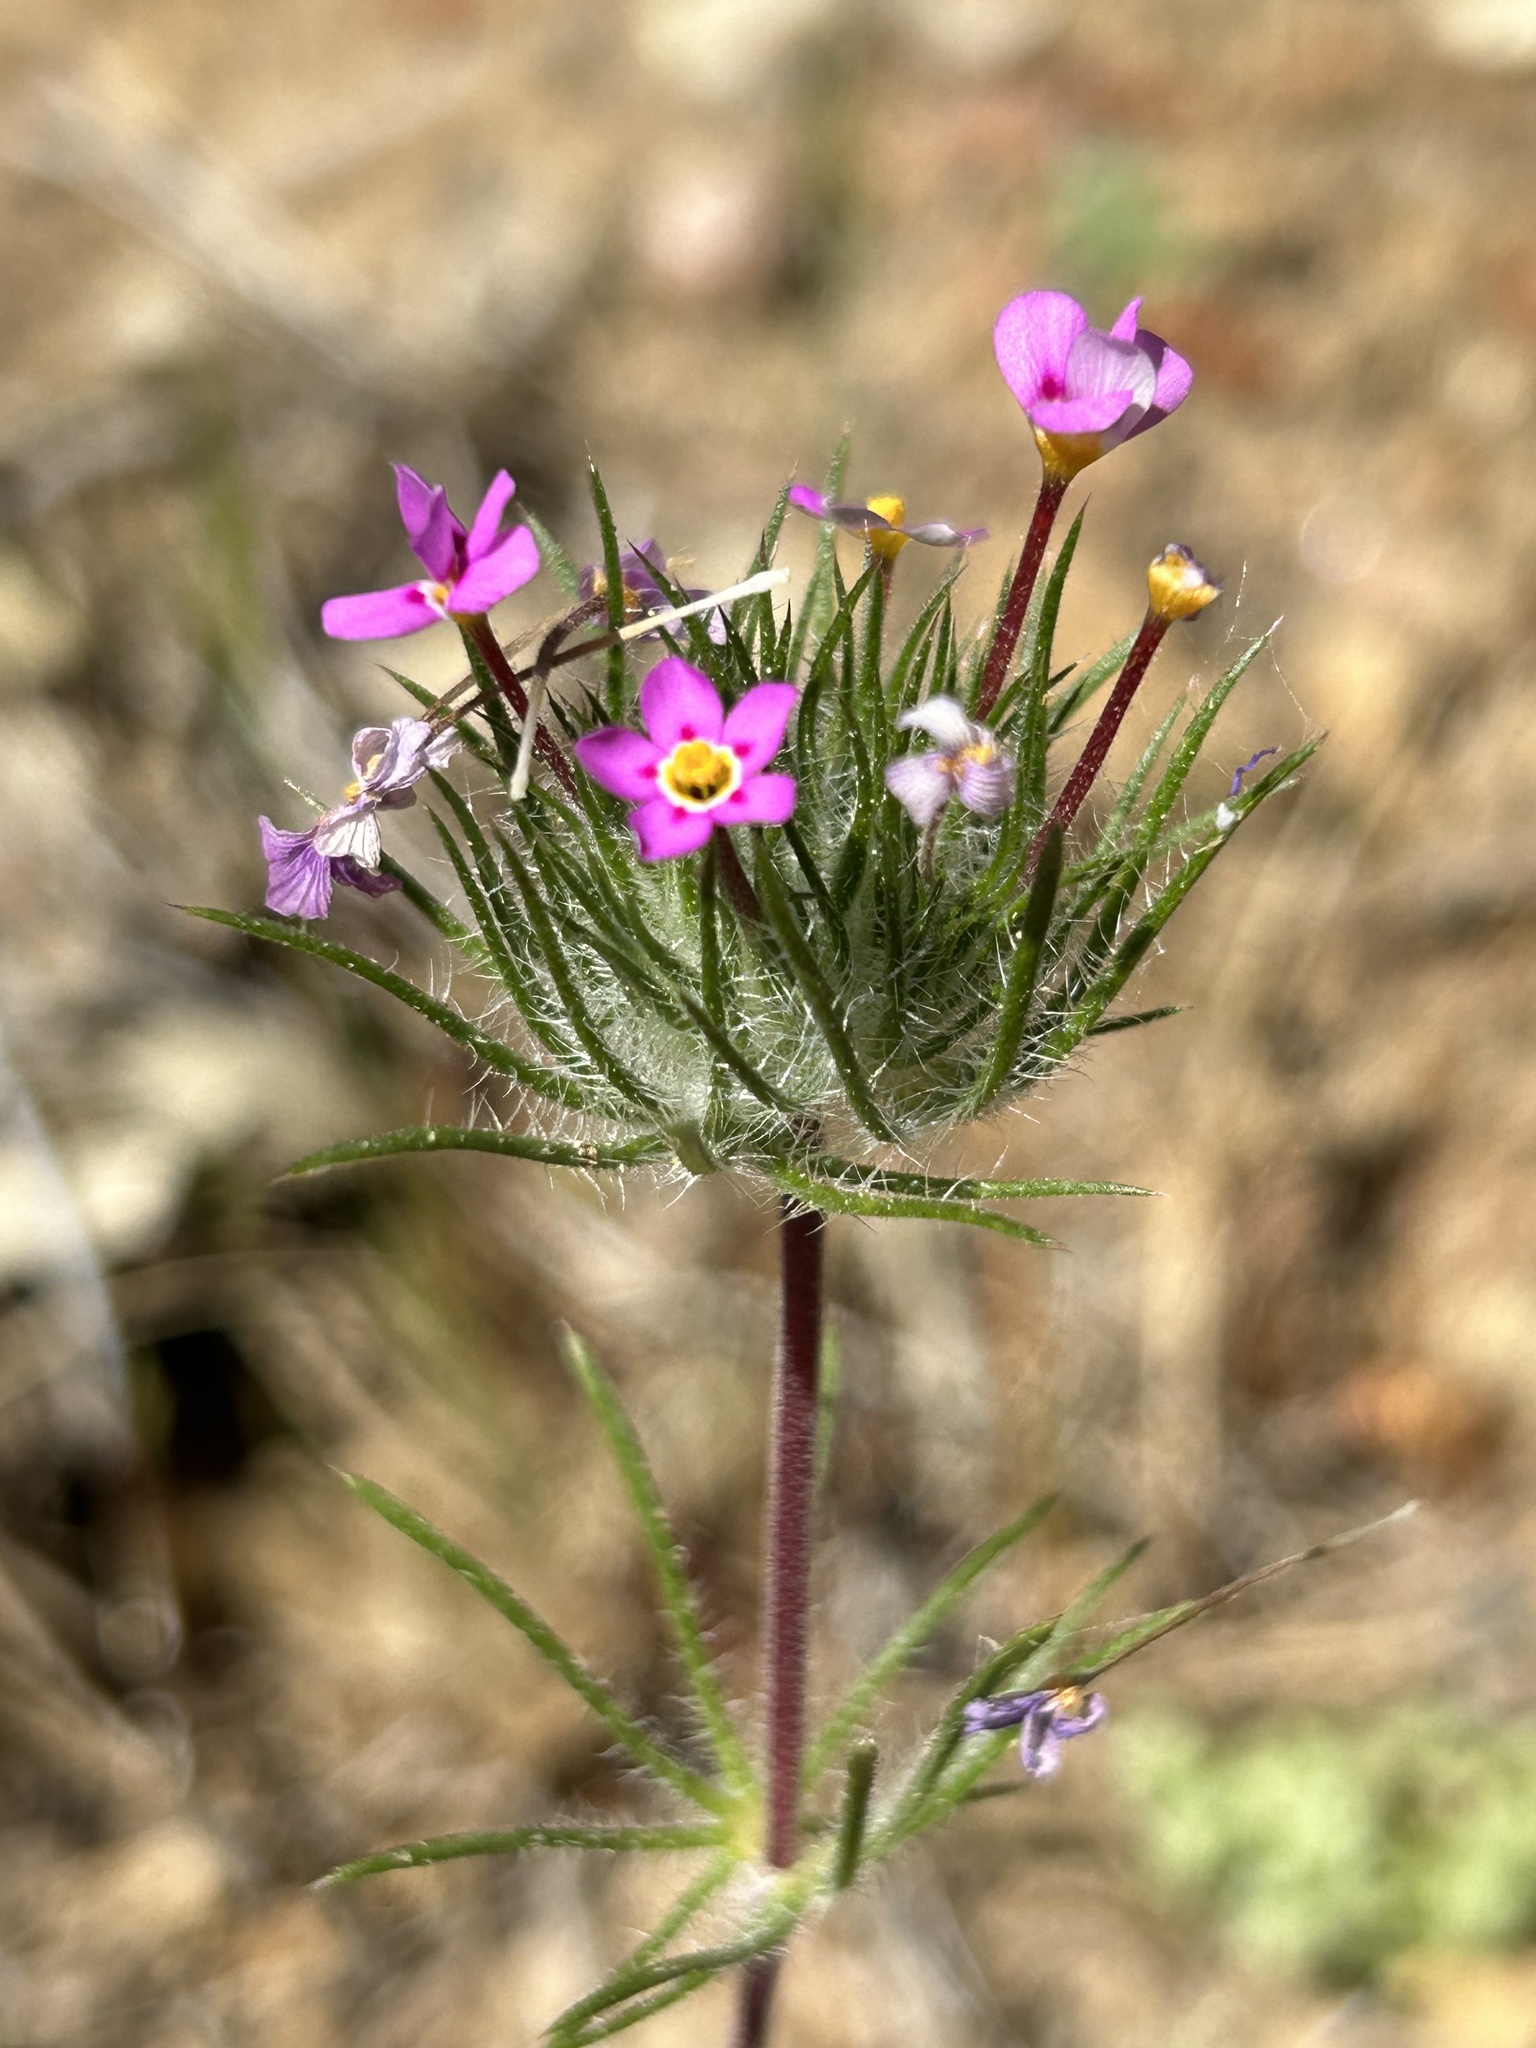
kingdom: Plantae
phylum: Tracheophyta
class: Magnoliopsida
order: Ericales
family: Polemoniaceae
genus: Leptosiphon
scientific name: Leptosiphon ciliatus
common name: Whiskerbrush
